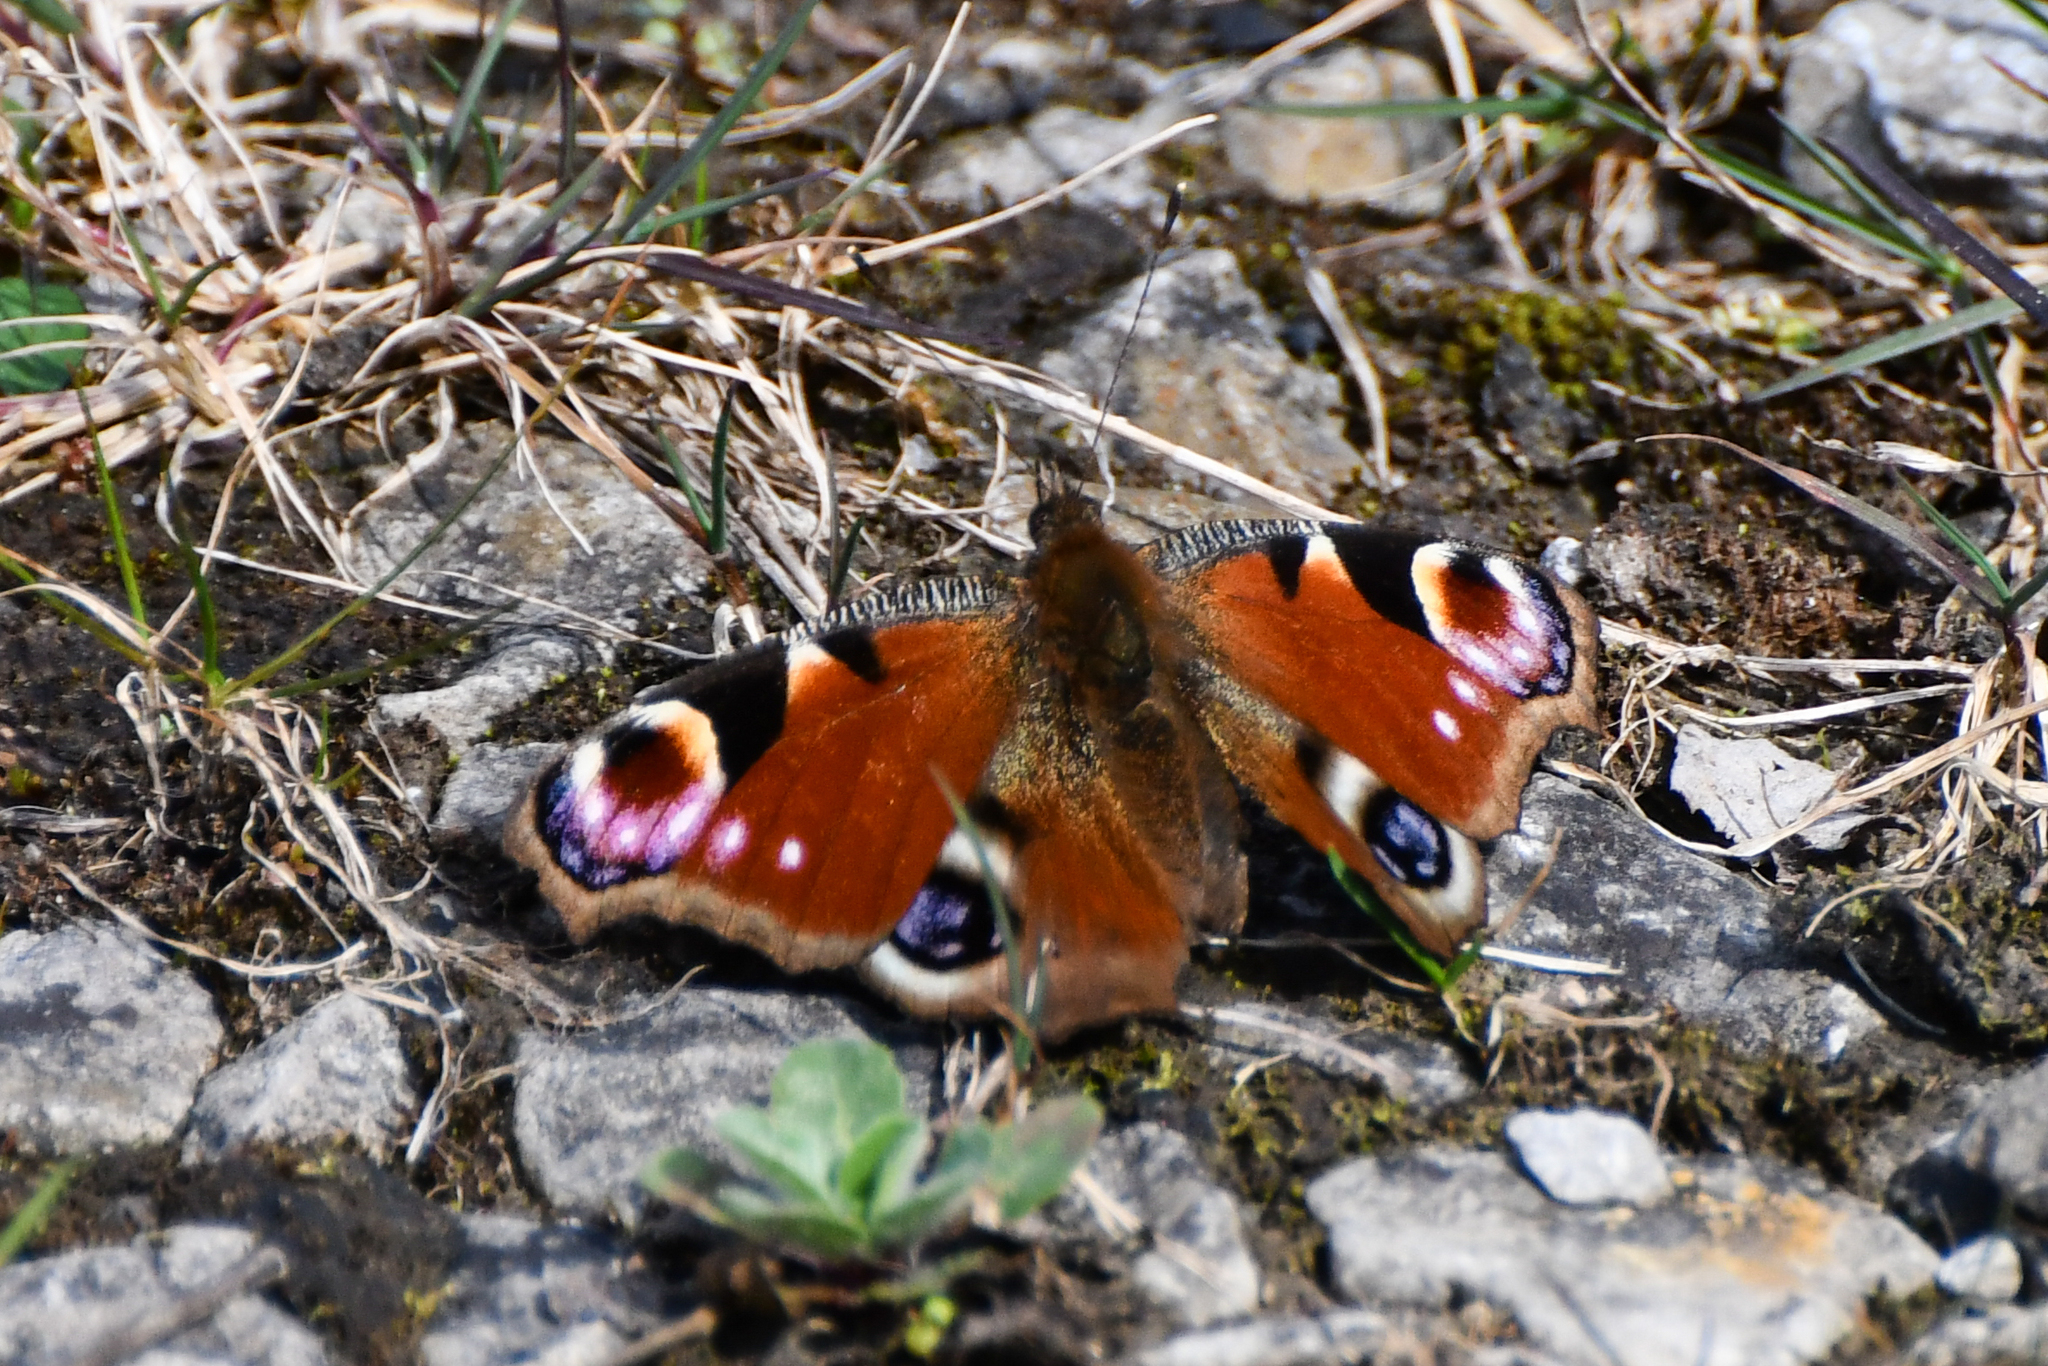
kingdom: Animalia
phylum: Arthropoda
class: Insecta
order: Lepidoptera
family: Nymphalidae
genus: Aglais
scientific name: Aglais io
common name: Peacock
